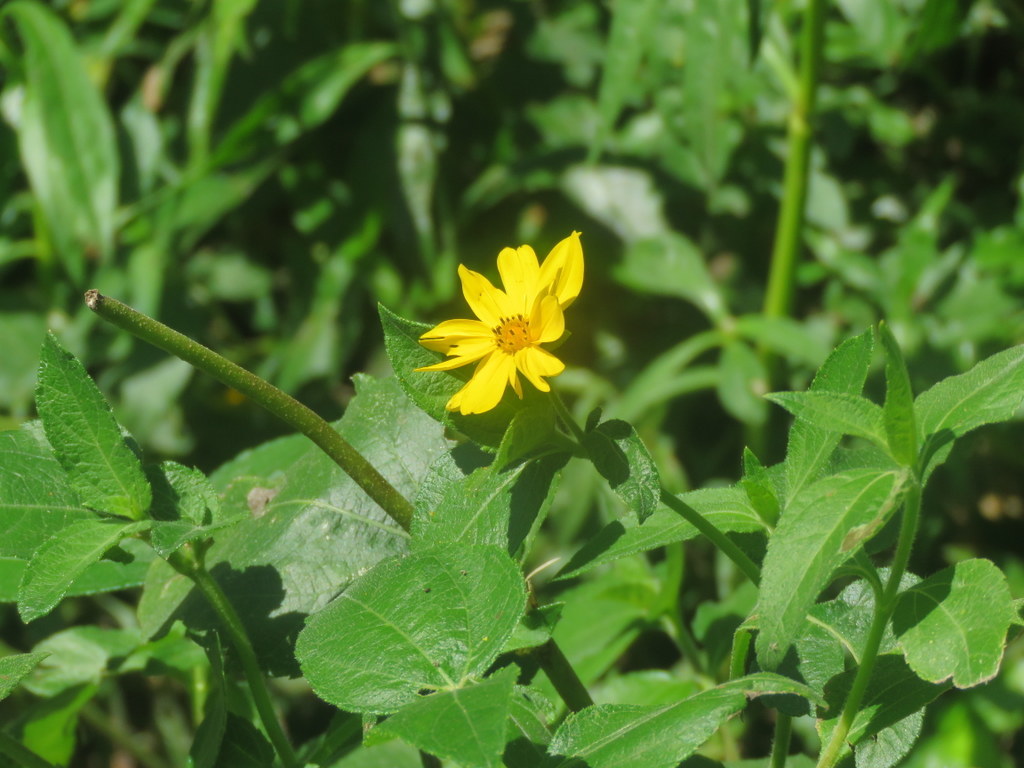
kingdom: Plantae
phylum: Tracheophyta
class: Magnoliopsida
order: Asterales
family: Asteraceae
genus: Wedelia
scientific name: Wedelia silphioides
